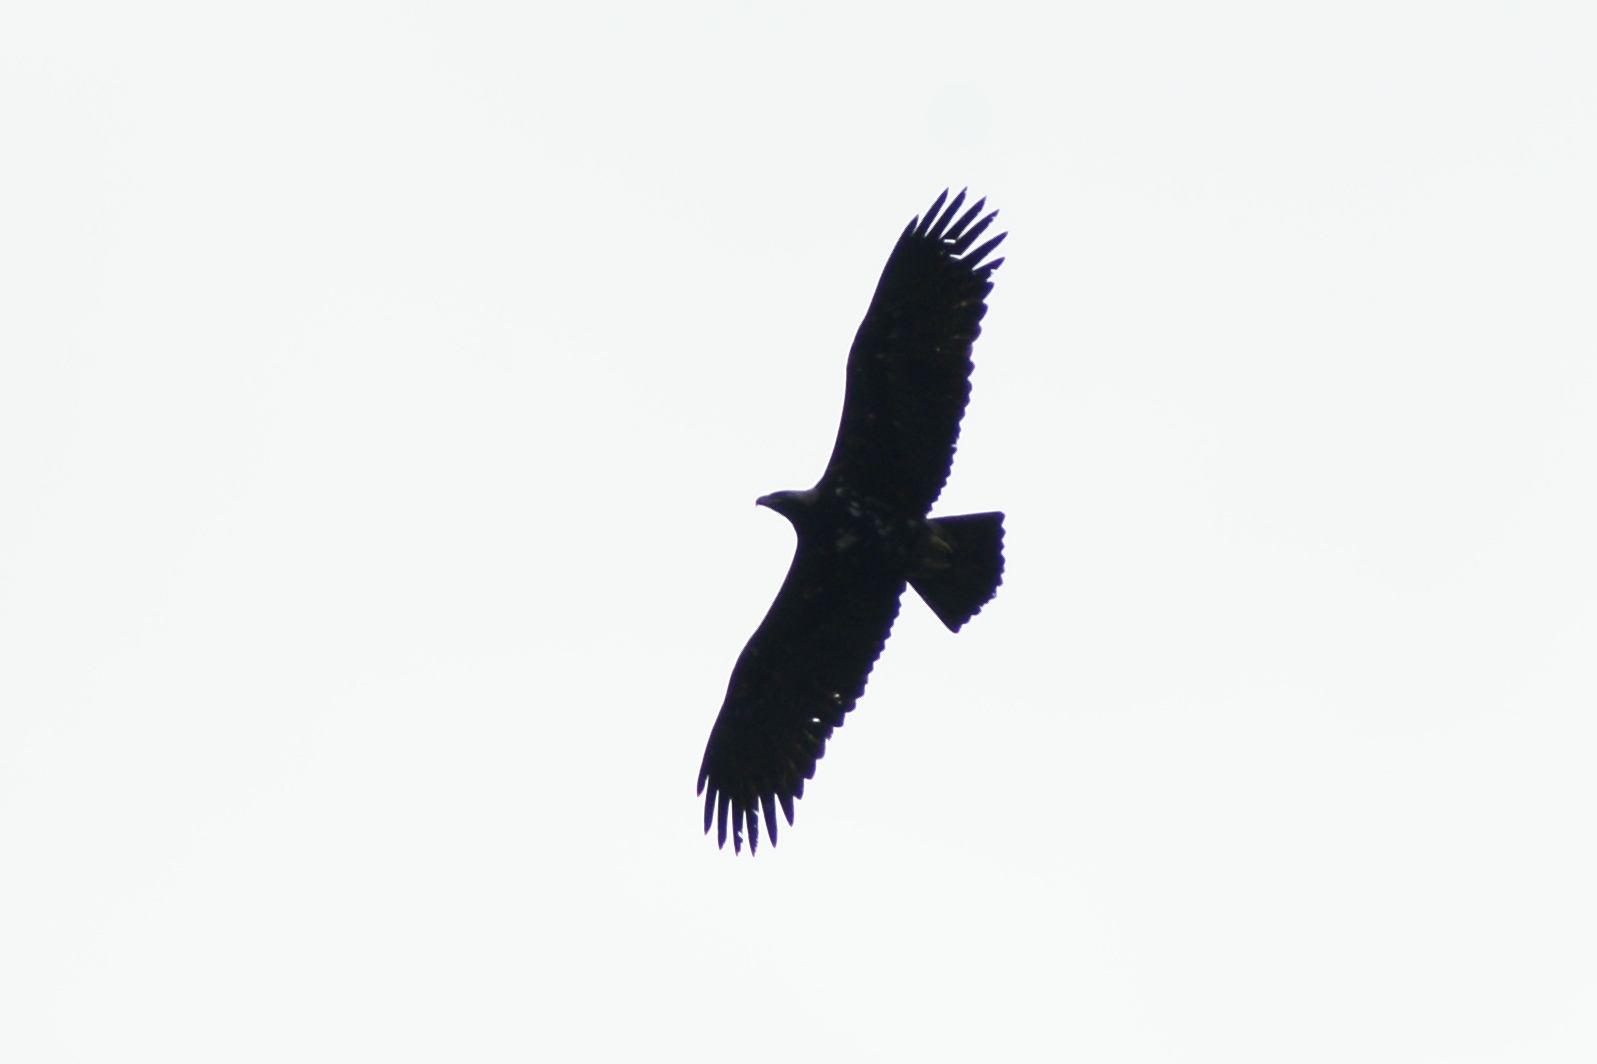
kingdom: Animalia
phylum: Chordata
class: Aves
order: Accipitriformes
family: Accipitridae
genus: Aquila
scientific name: Aquila heliaca
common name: Eastern imperial eagle
